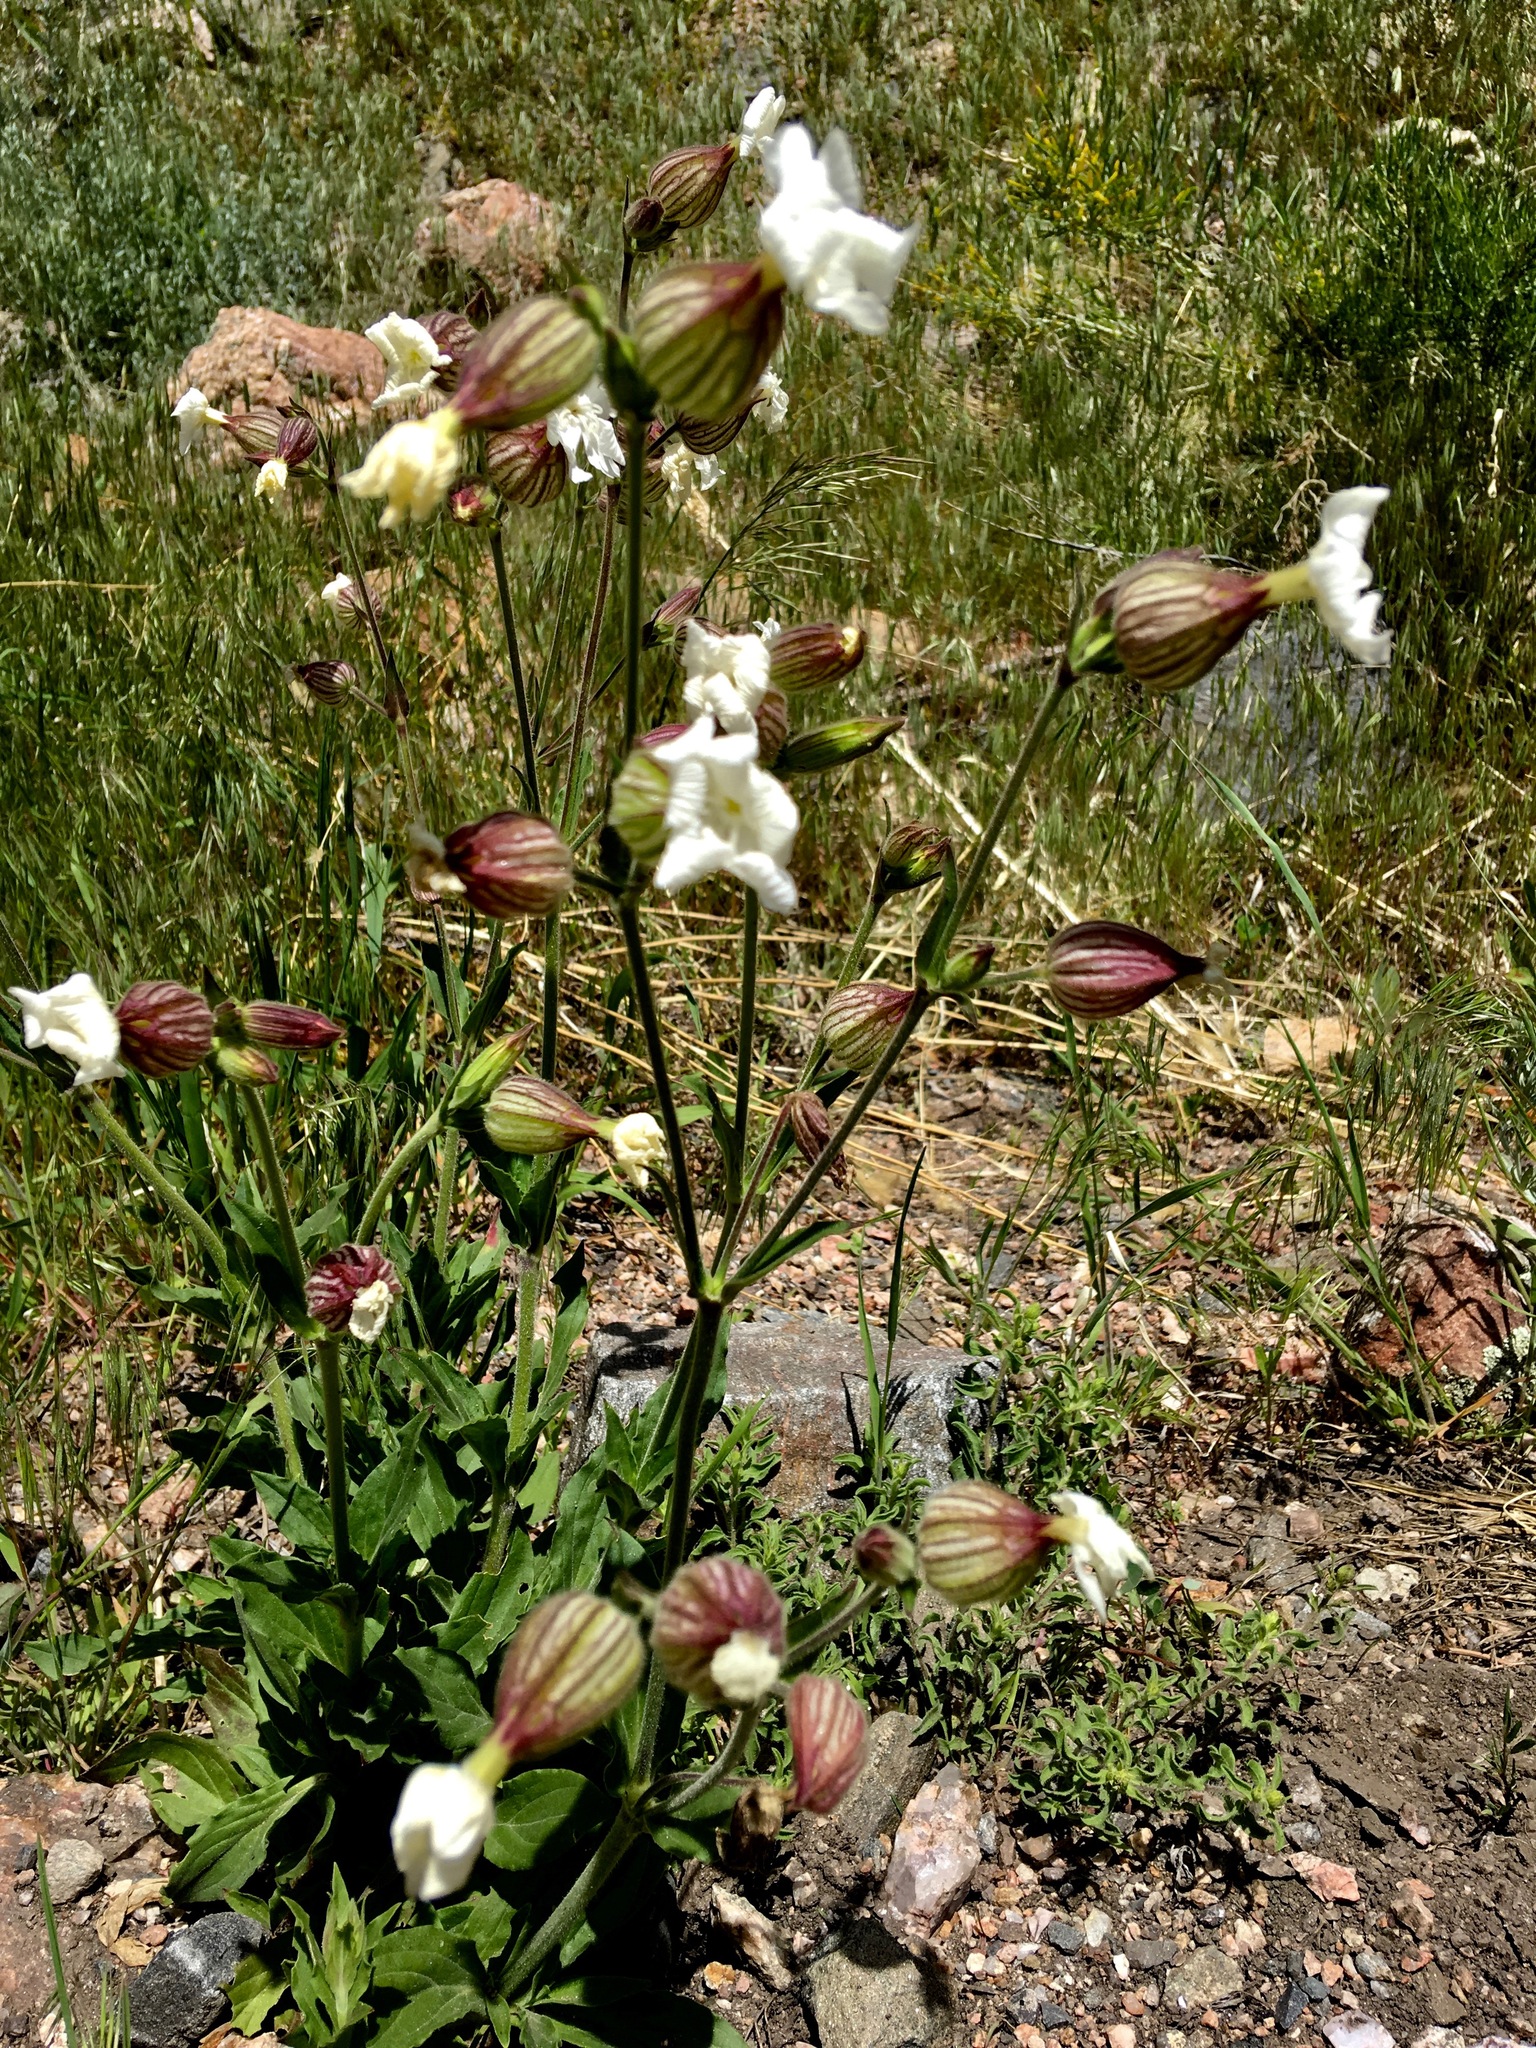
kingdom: Plantae
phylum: Tracheophyta
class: Magnoliopsida
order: Caryophyllales
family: Caryophyllaceae
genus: Silene
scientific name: Silene latifolia
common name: White campion
